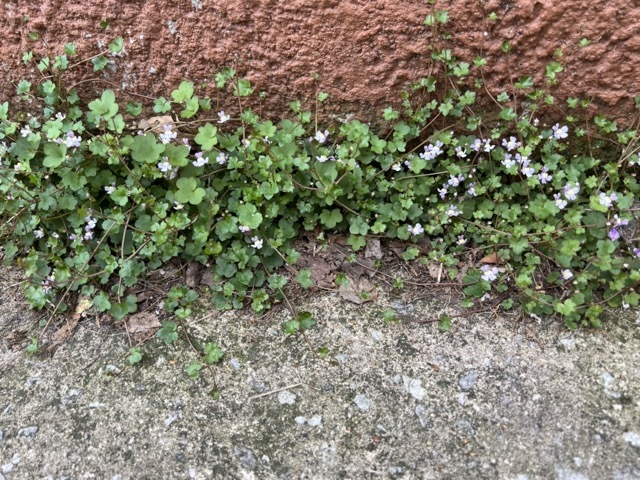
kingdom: Plantae
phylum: Tracheophyta
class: Magnoliopsida
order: Lamiales
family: Plantaginaceae
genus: Cymbalaria
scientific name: Cymbalaria muralis
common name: Ivy-leaved toadflax
